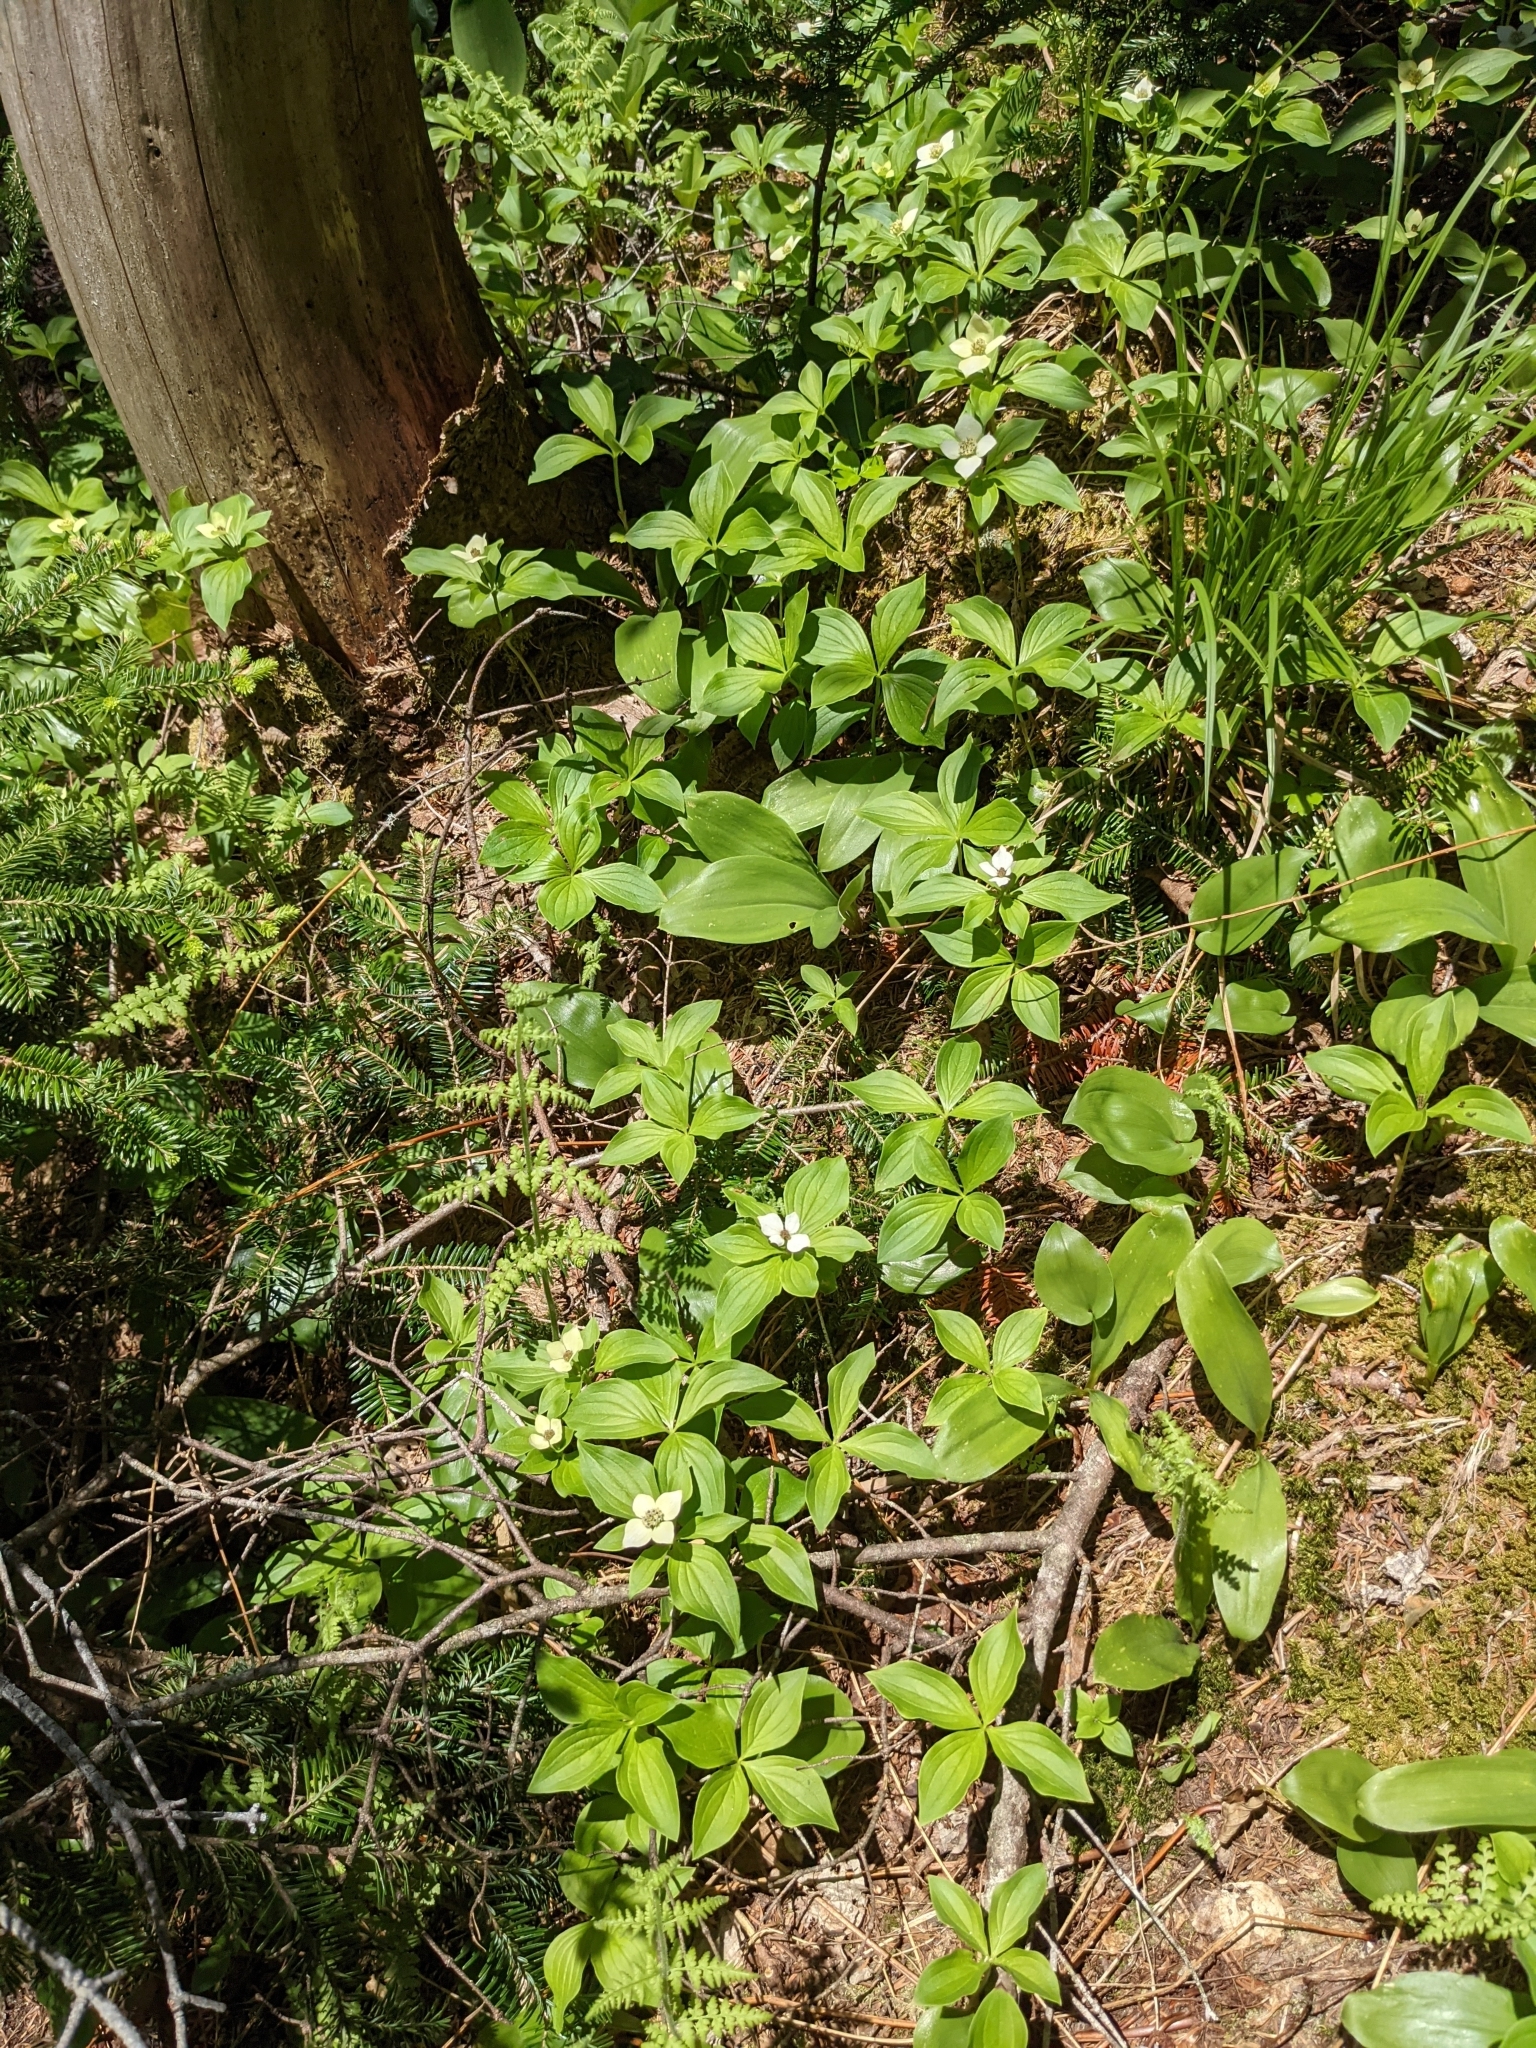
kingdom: Plantae
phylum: Tracheophyta
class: Magnoliopsida
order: Cornales
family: Cornaceae
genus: Cornus
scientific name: Cornus canadensis
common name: Creeping dogwood
